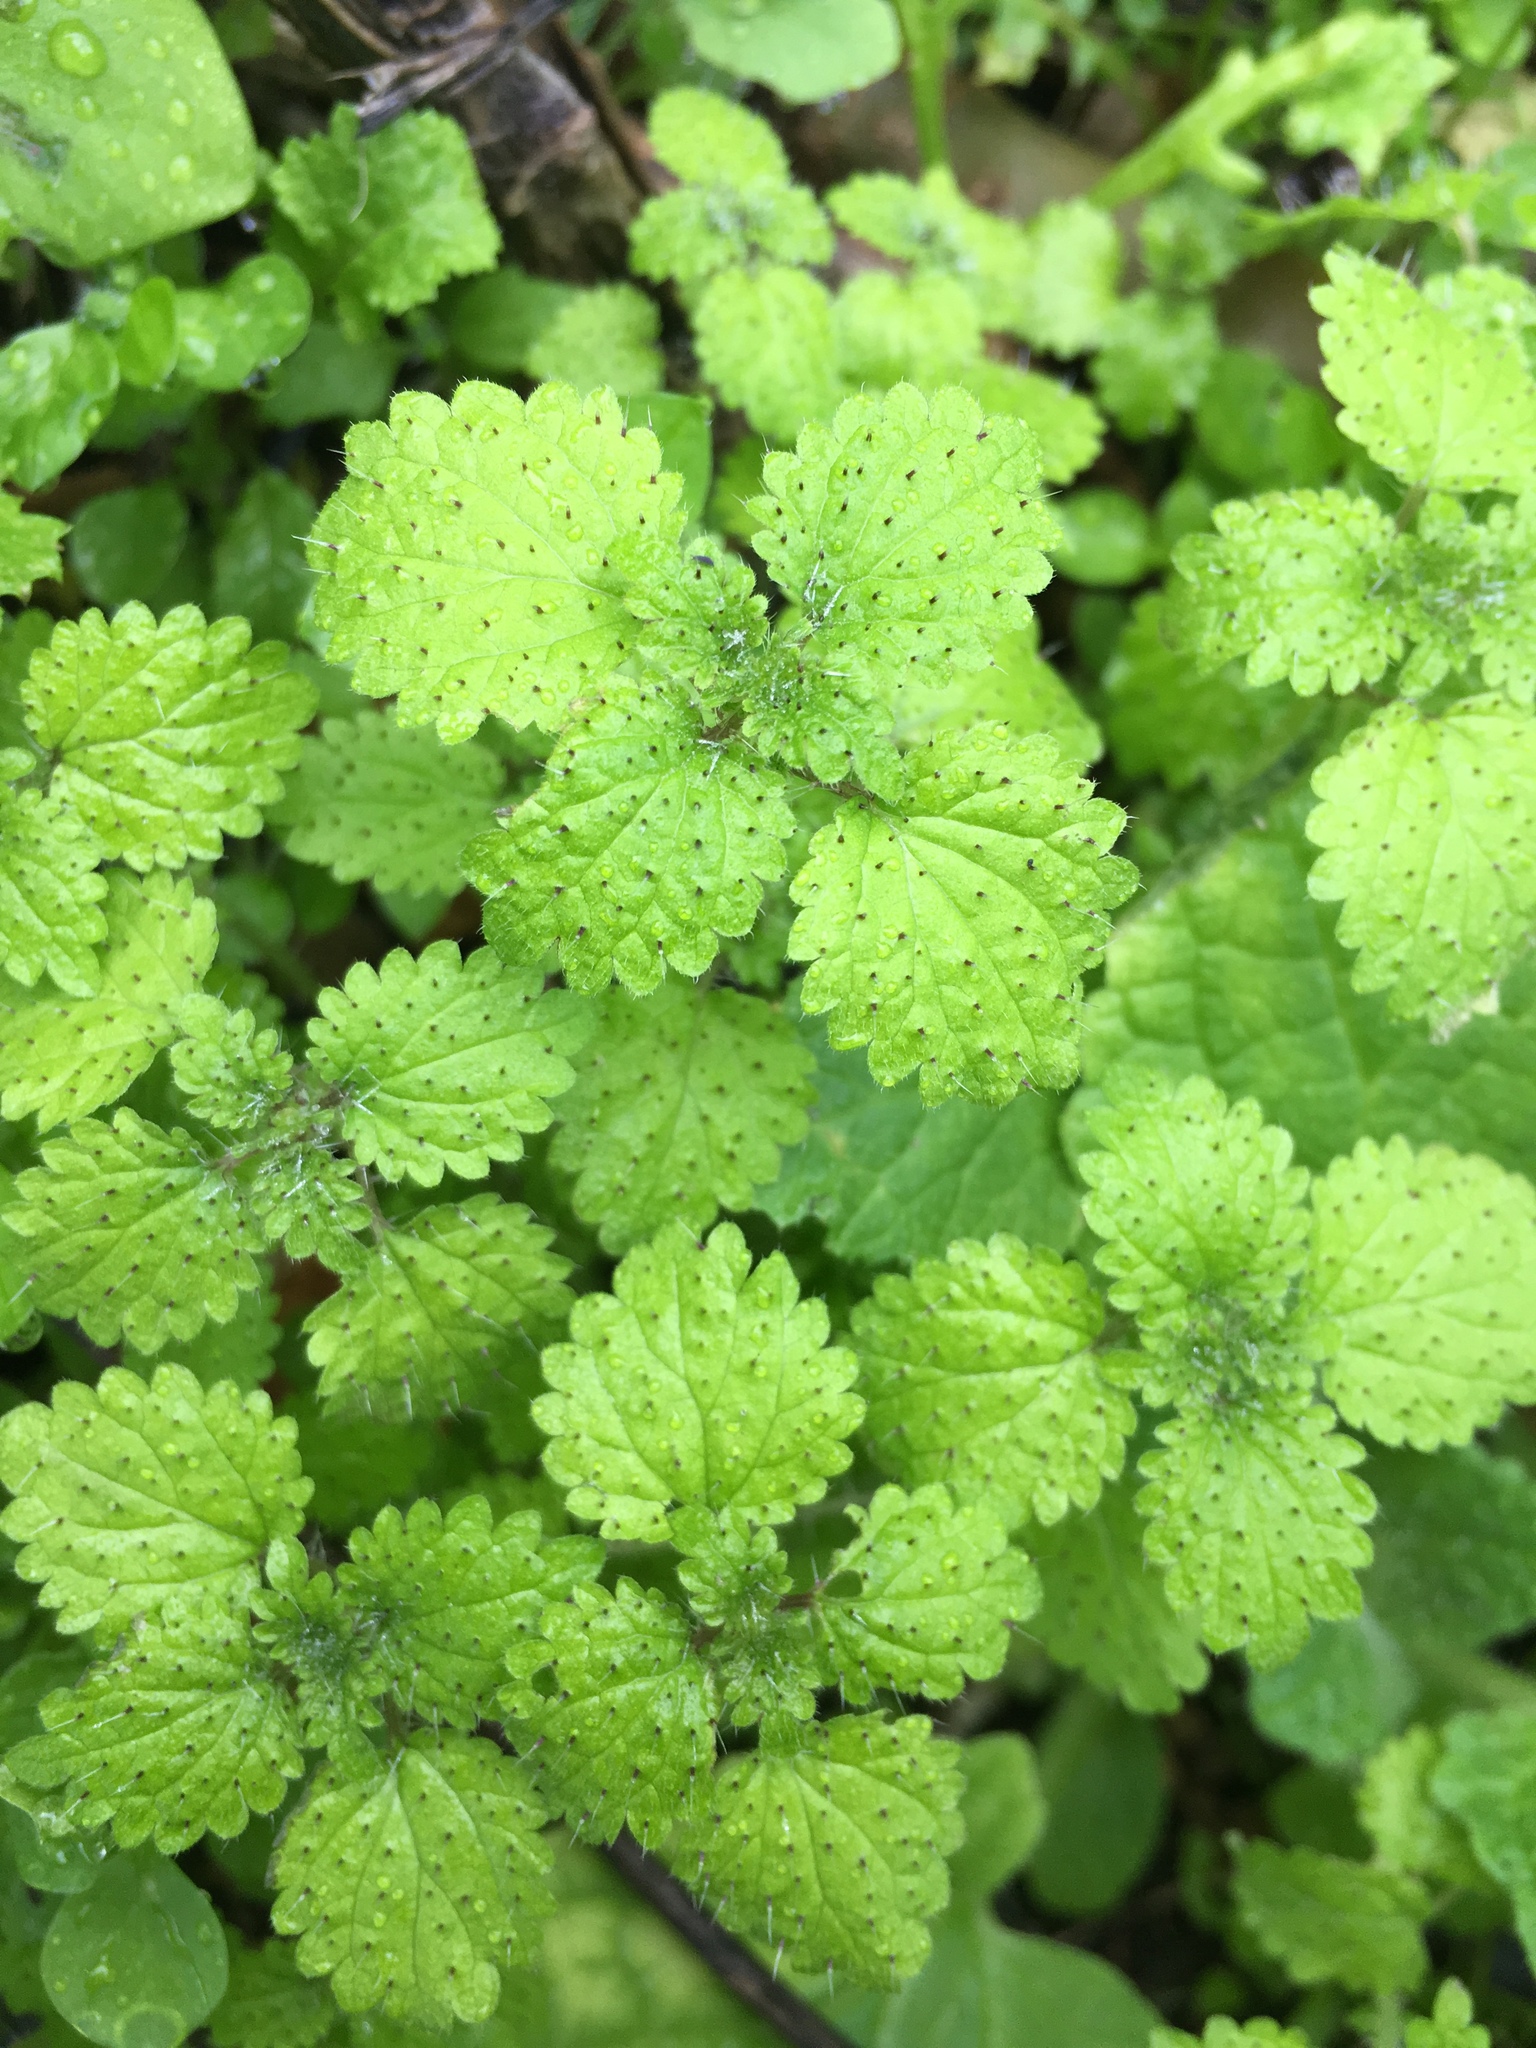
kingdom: Plantae
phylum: Tracheophyta
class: Magnoliopsida
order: Rosales
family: Urticaceae
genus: Hesperocnide
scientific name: Hesperocnide tenella
